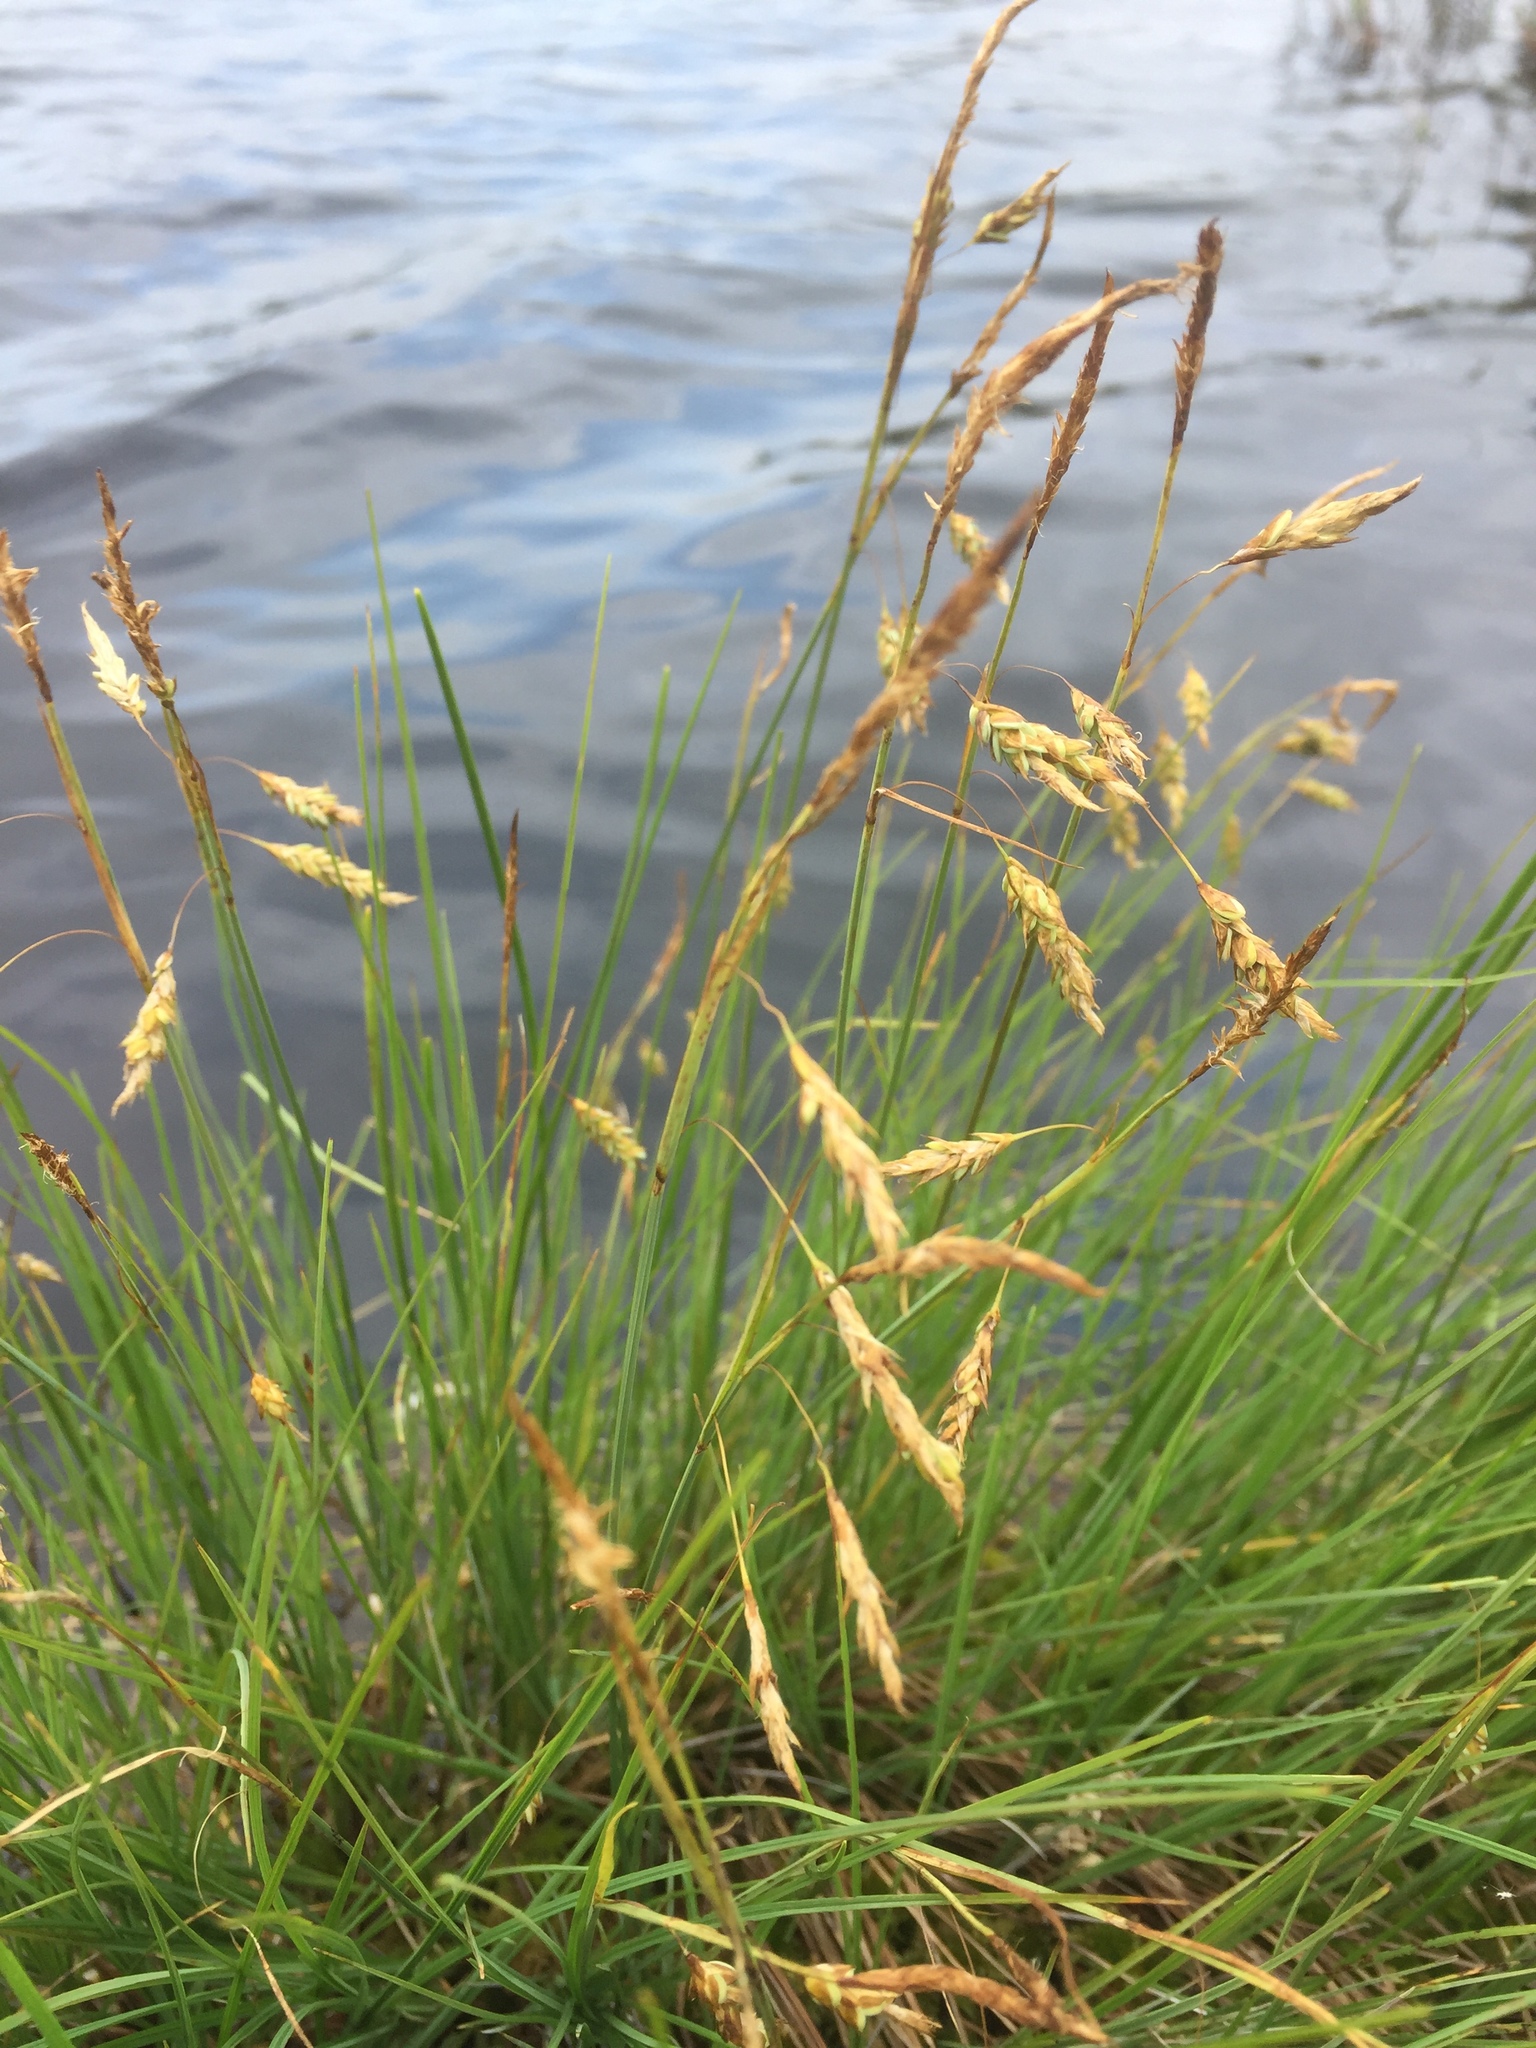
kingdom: Plantae
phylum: Tracheophyta
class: Liliopsida
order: Poales
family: Cyperaceae
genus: Carex
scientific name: Carex limosa
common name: Bog sedge
